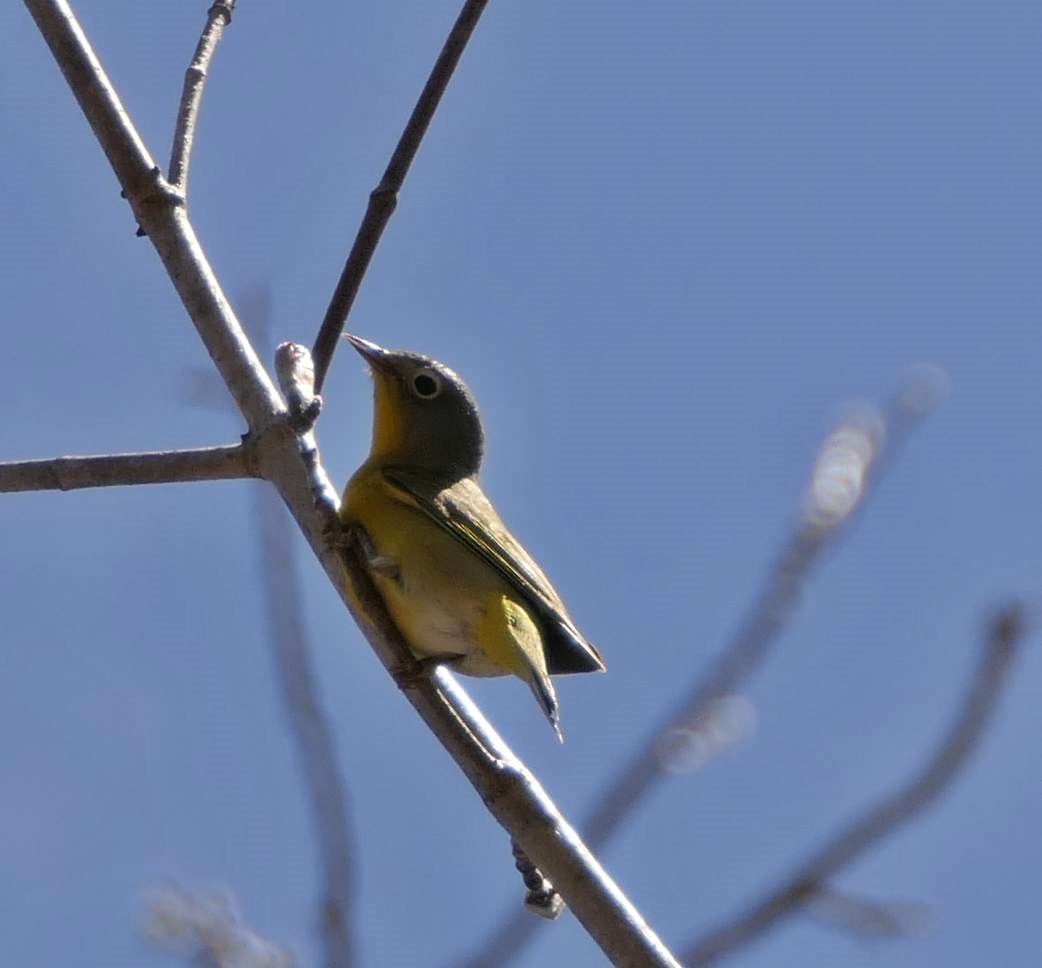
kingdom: Animalia
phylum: Chordata
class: Aves
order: Passeriformes
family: Parulidae
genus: Leiothlypis
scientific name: Leiothlypis ruficapilla
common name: Nashville warbler
